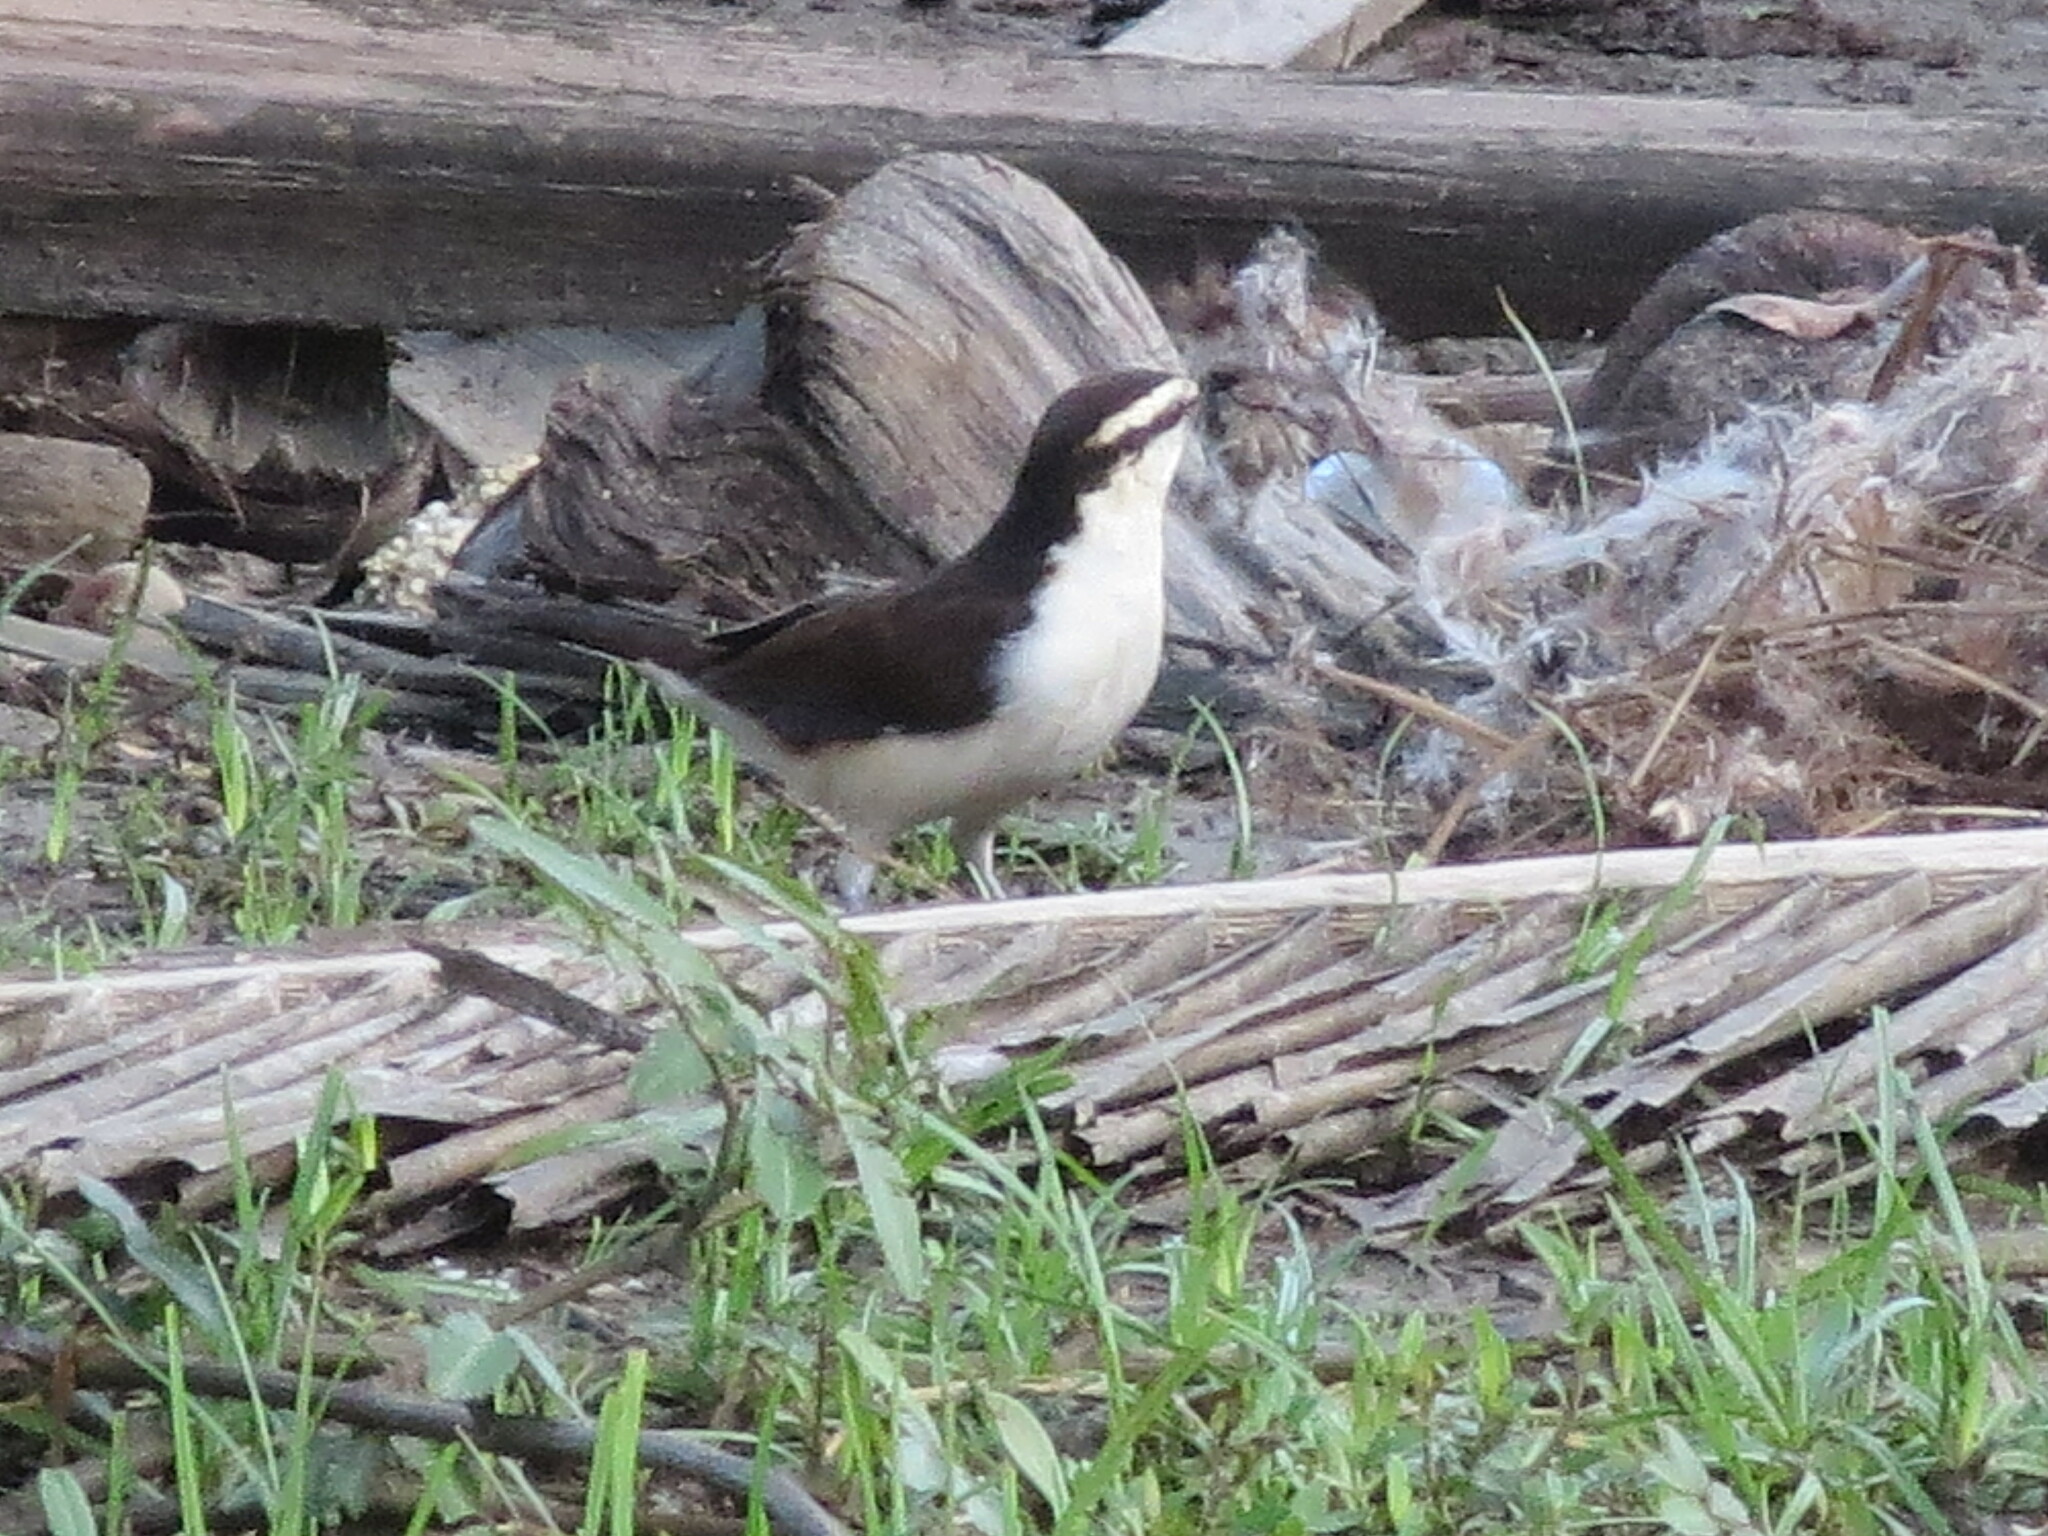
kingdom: Animalia
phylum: Chordata
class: Aves
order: Passeriformes
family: Troglodytidae
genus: Campylorhynchus
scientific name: Campylorhynchus griseus
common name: Bicolored wren
